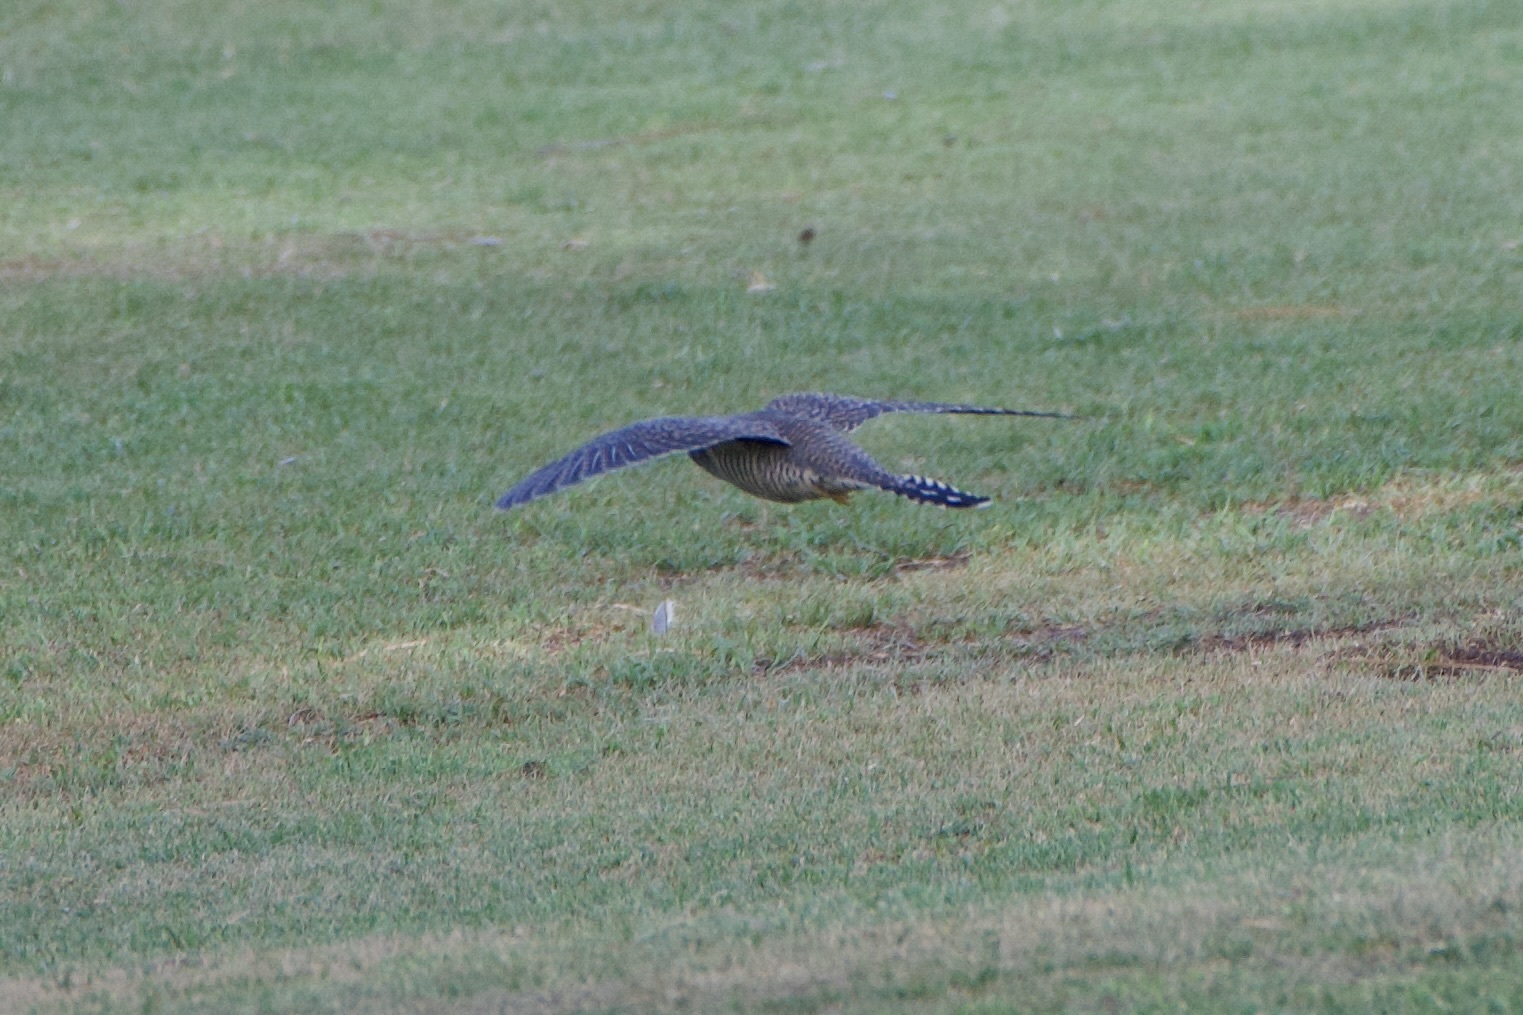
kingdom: Animalia
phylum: Chordata
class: Aves
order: Cuculiformes
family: Cuculidae
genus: Cuculus
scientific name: Cuculus canorus
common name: Common cuckoo
